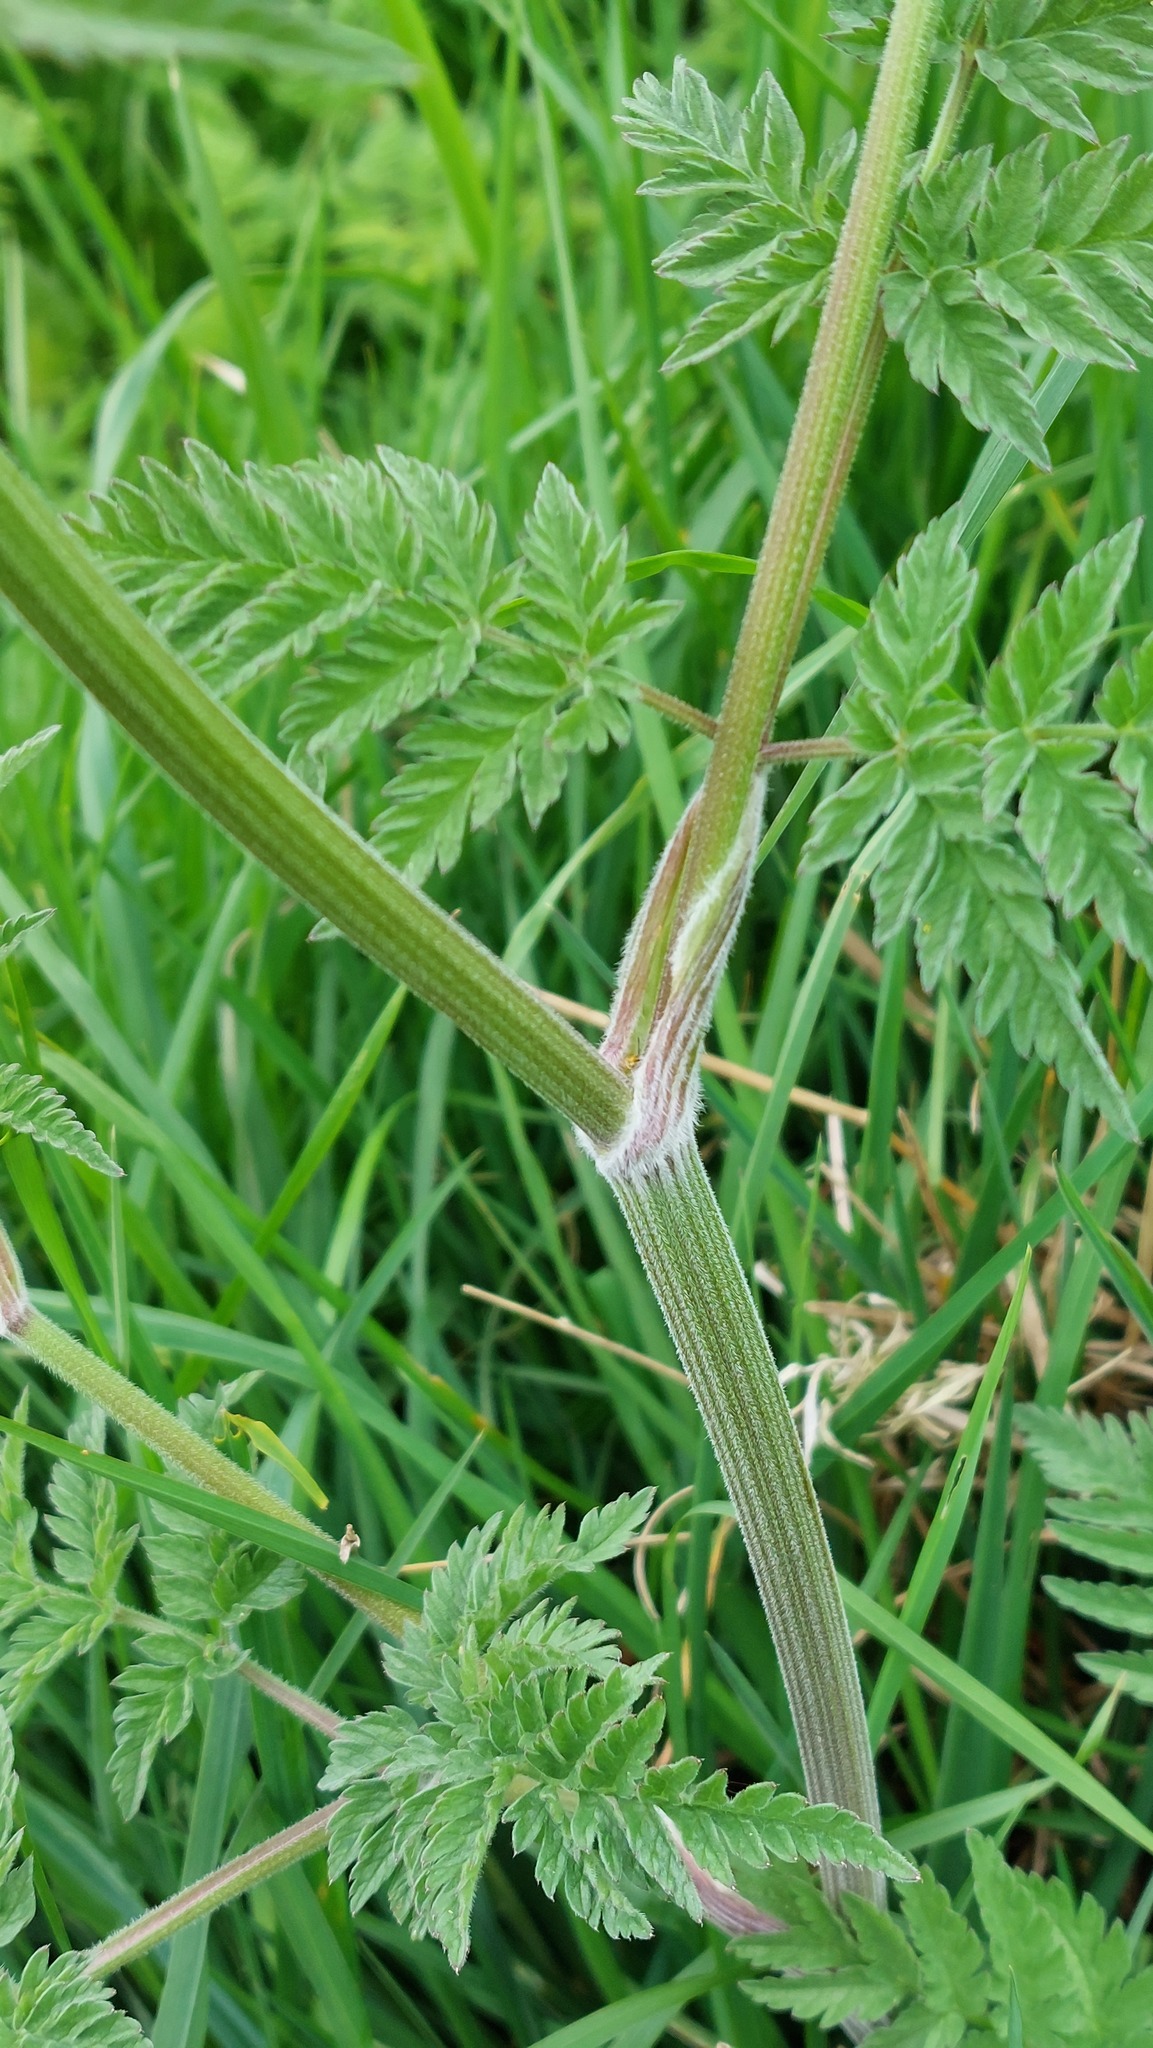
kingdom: Plantae
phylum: Tracheophyta
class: Magnoliopsida
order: Apiales
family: Apiaceae
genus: Anthriscus
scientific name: Anthriscus sylvestris
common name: Cow parsley
